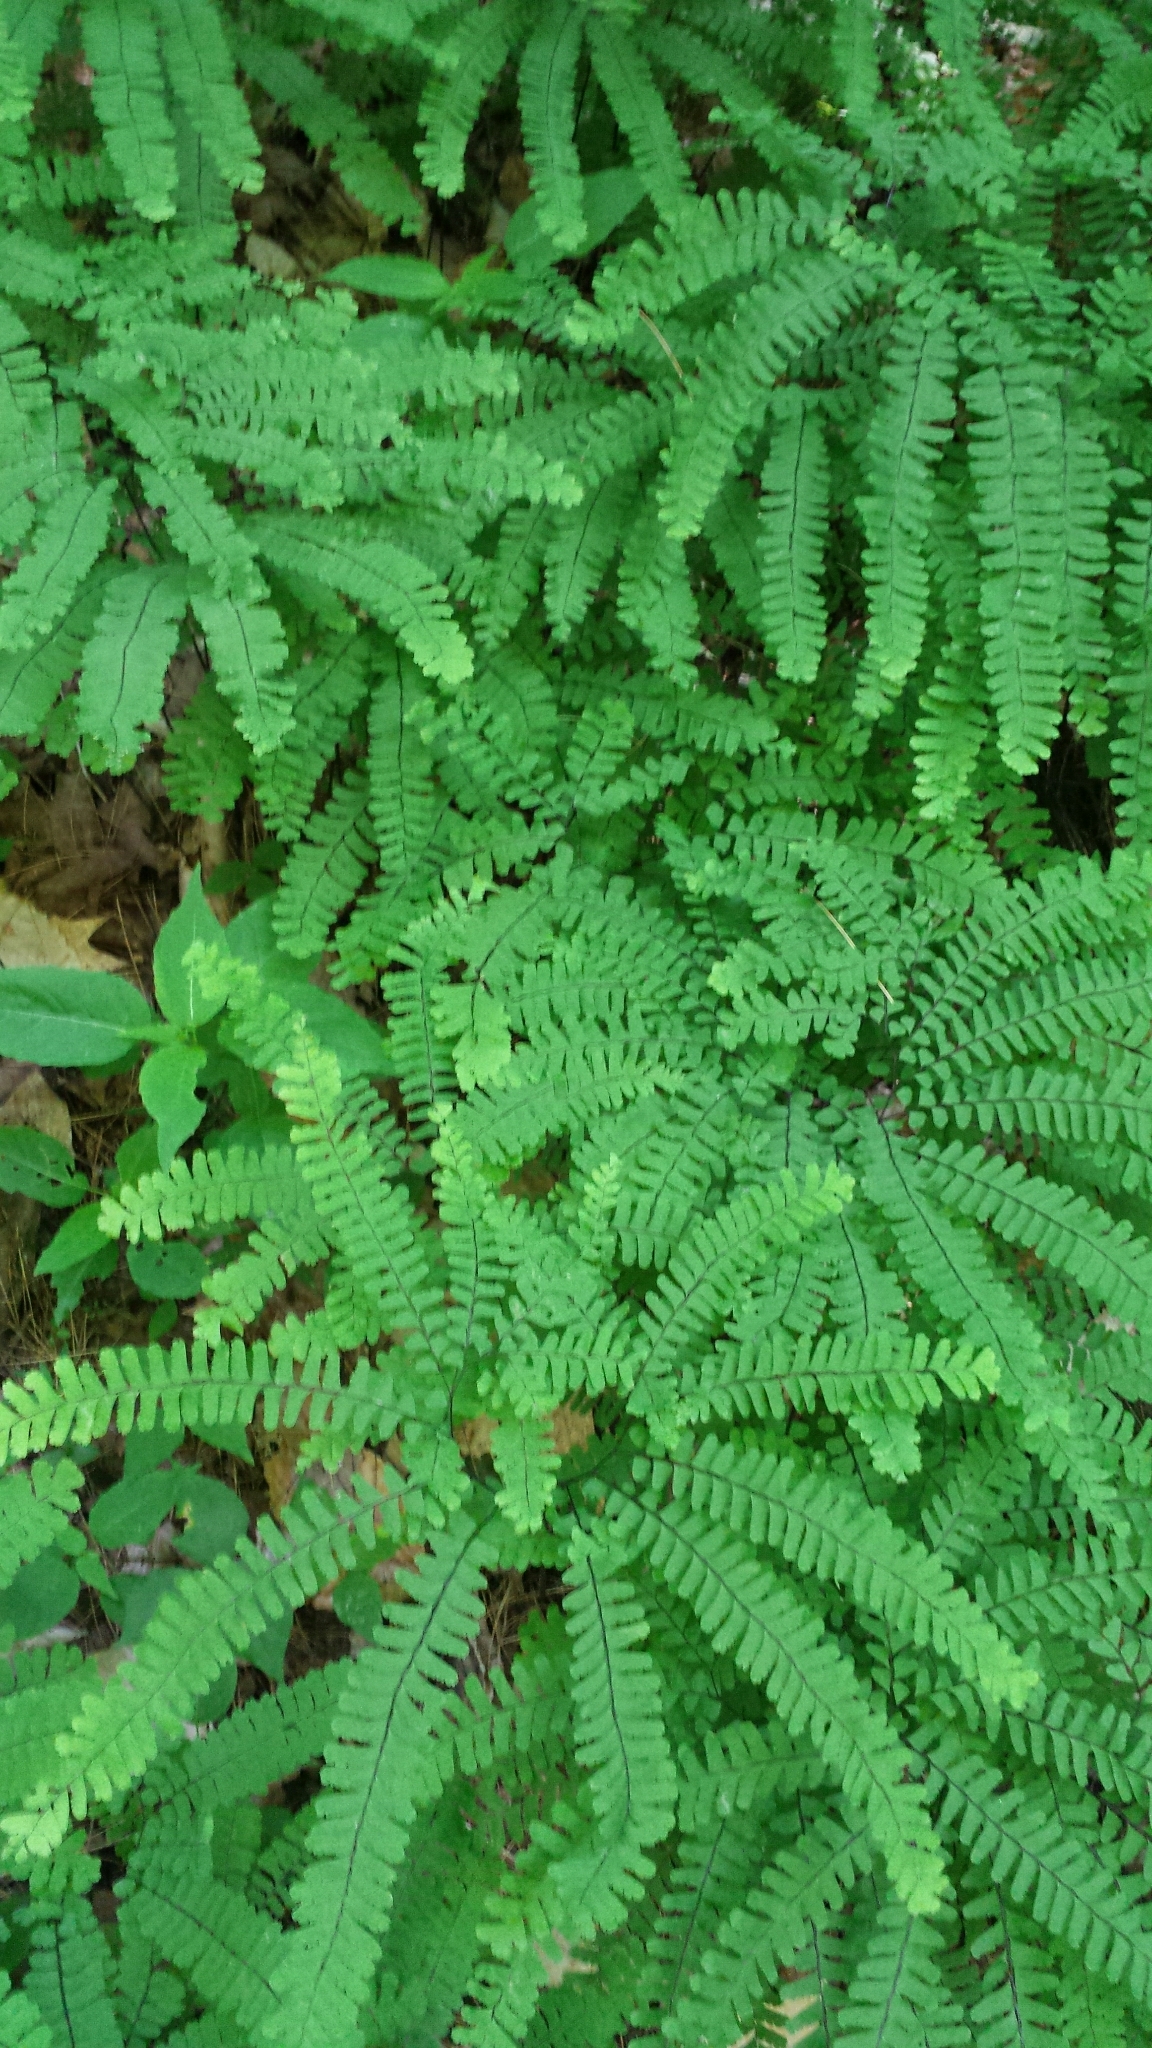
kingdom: Plantae
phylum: Tracheophyta
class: Polypodiopsida
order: Polypodiales
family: Pteridaceae
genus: Adiantum
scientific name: Adiantum pedatum
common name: Five-finger fern
